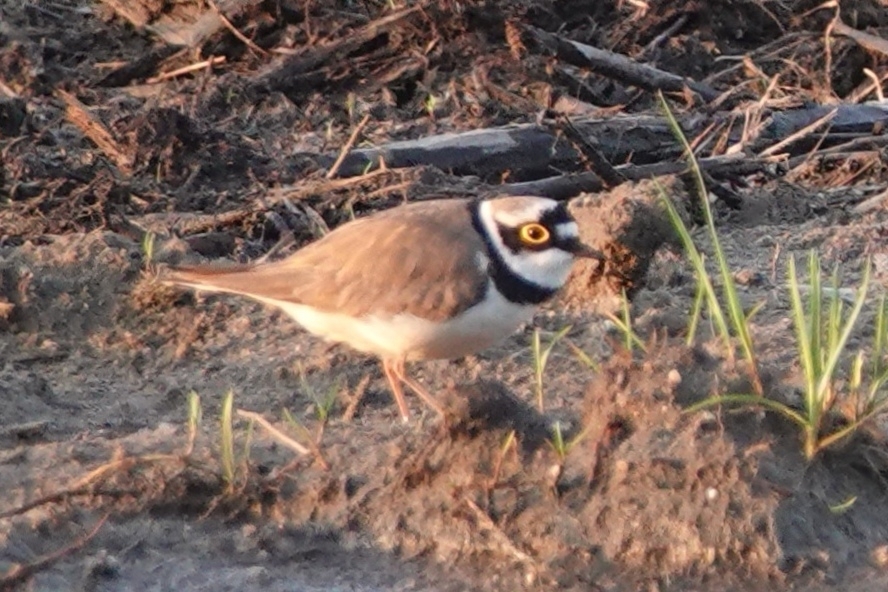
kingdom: Animalia
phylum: Chordata
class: Aves
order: Charadriiformes
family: Charadriidae
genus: Charadrius
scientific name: Charadrius dubius
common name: Little ringed plover
